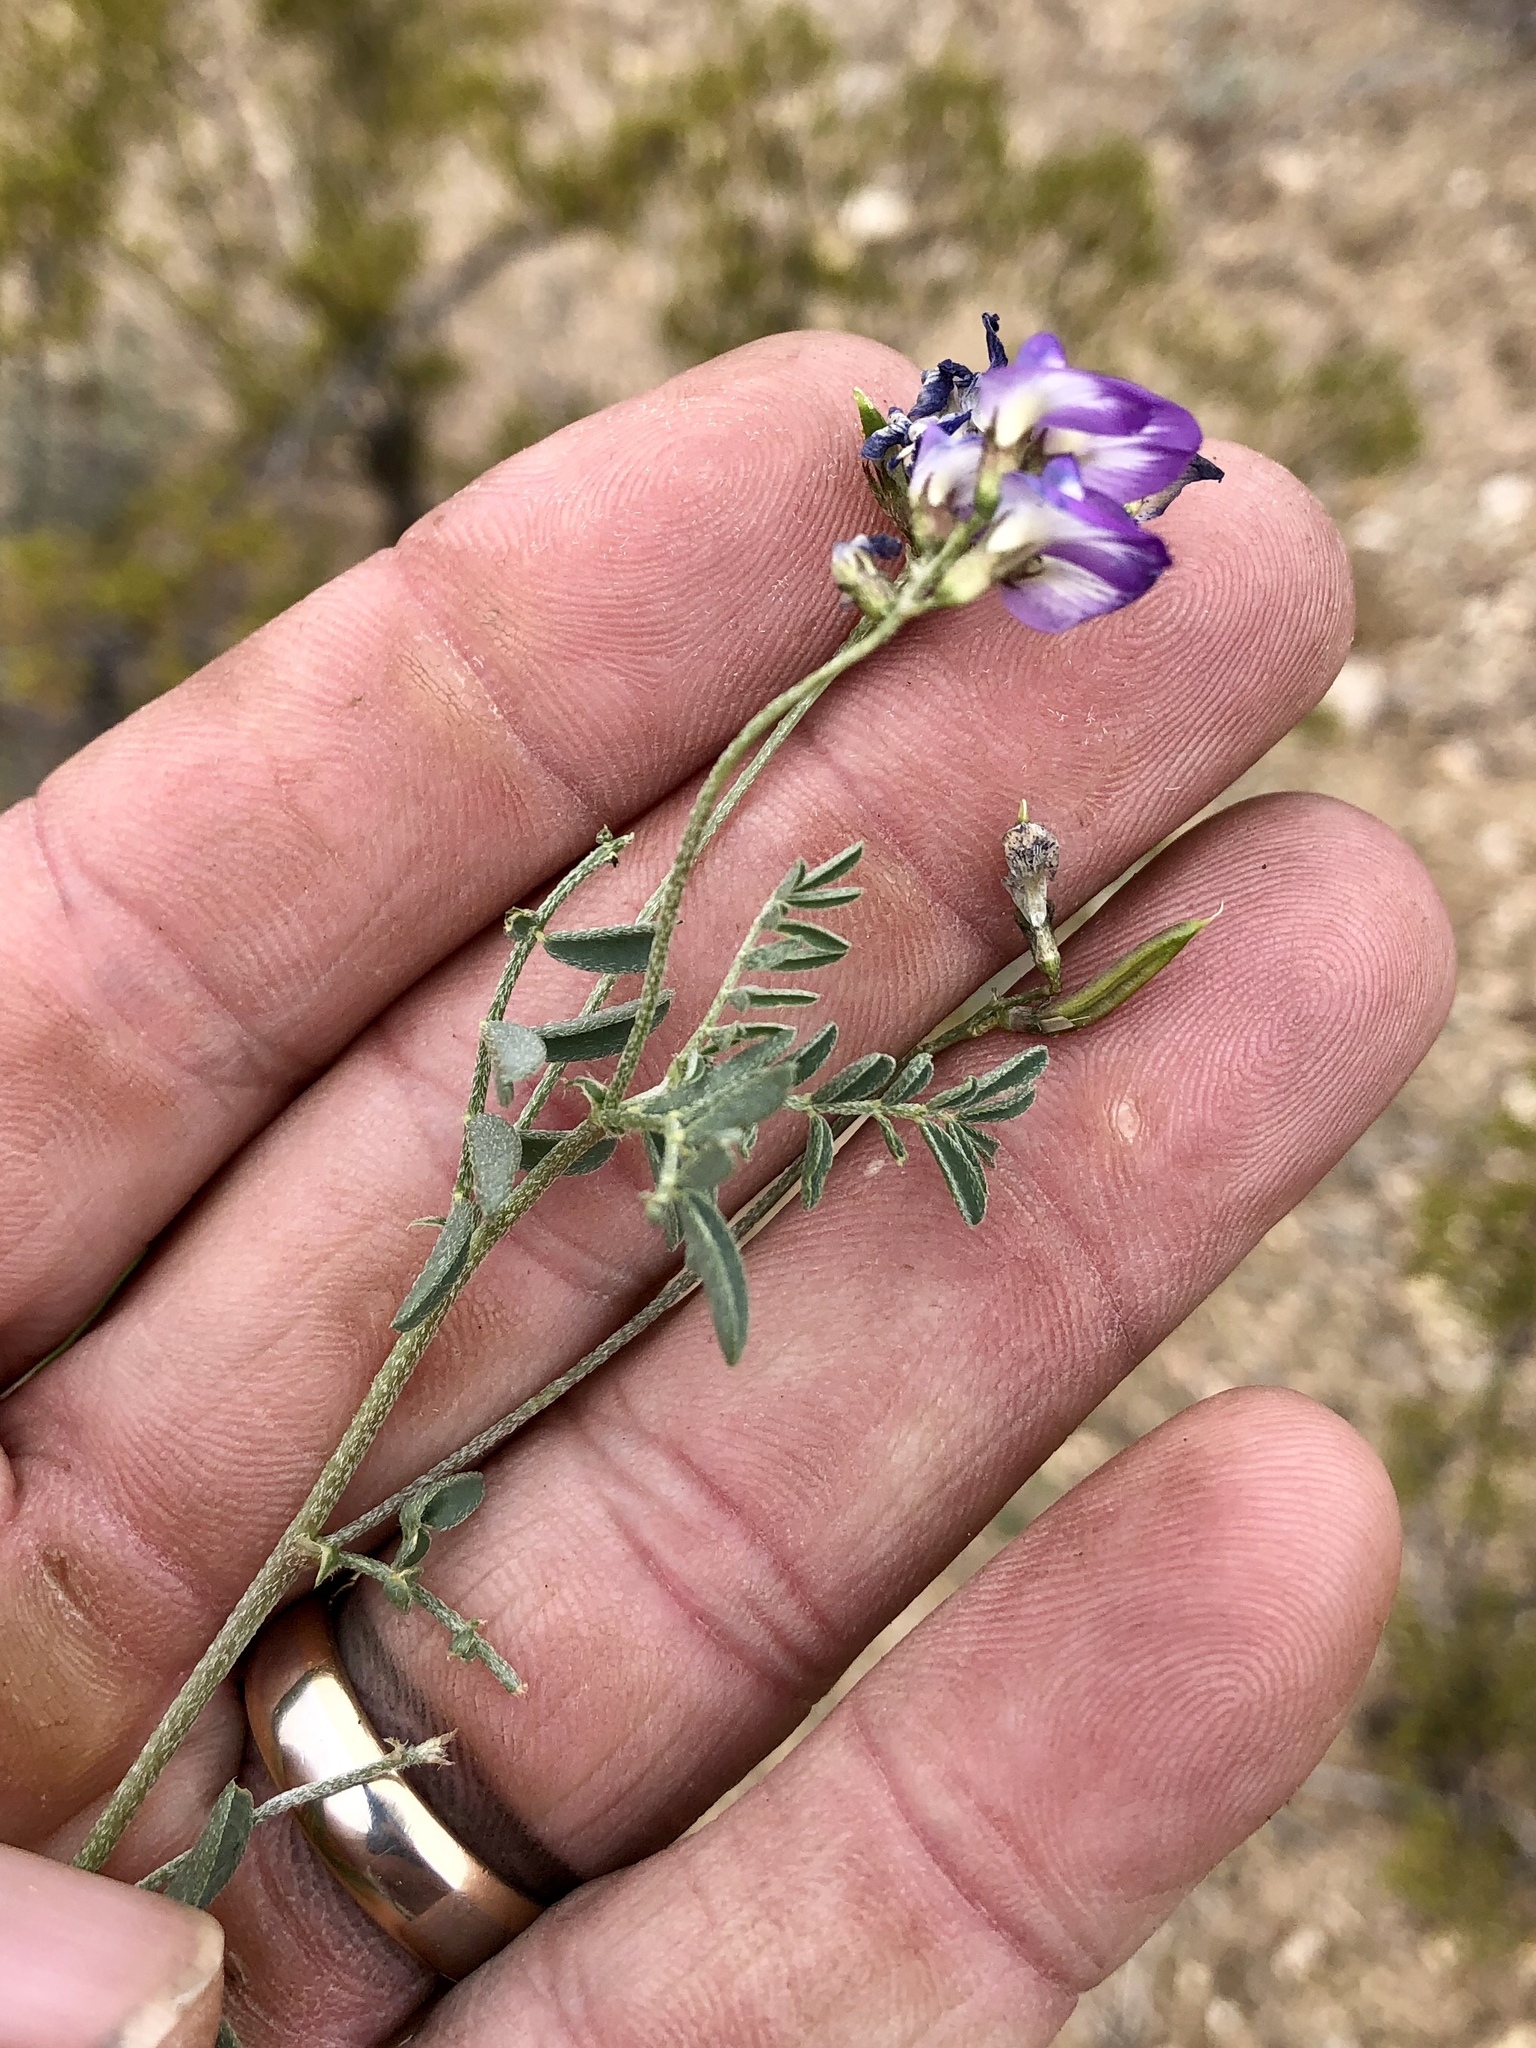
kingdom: Plantae
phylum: Tracheophyta
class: Magnoliopsida
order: Fabales
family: Fabaceae
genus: Astragalus
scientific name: Astragalus nuttallianus
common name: Smallflowered milkvetch
